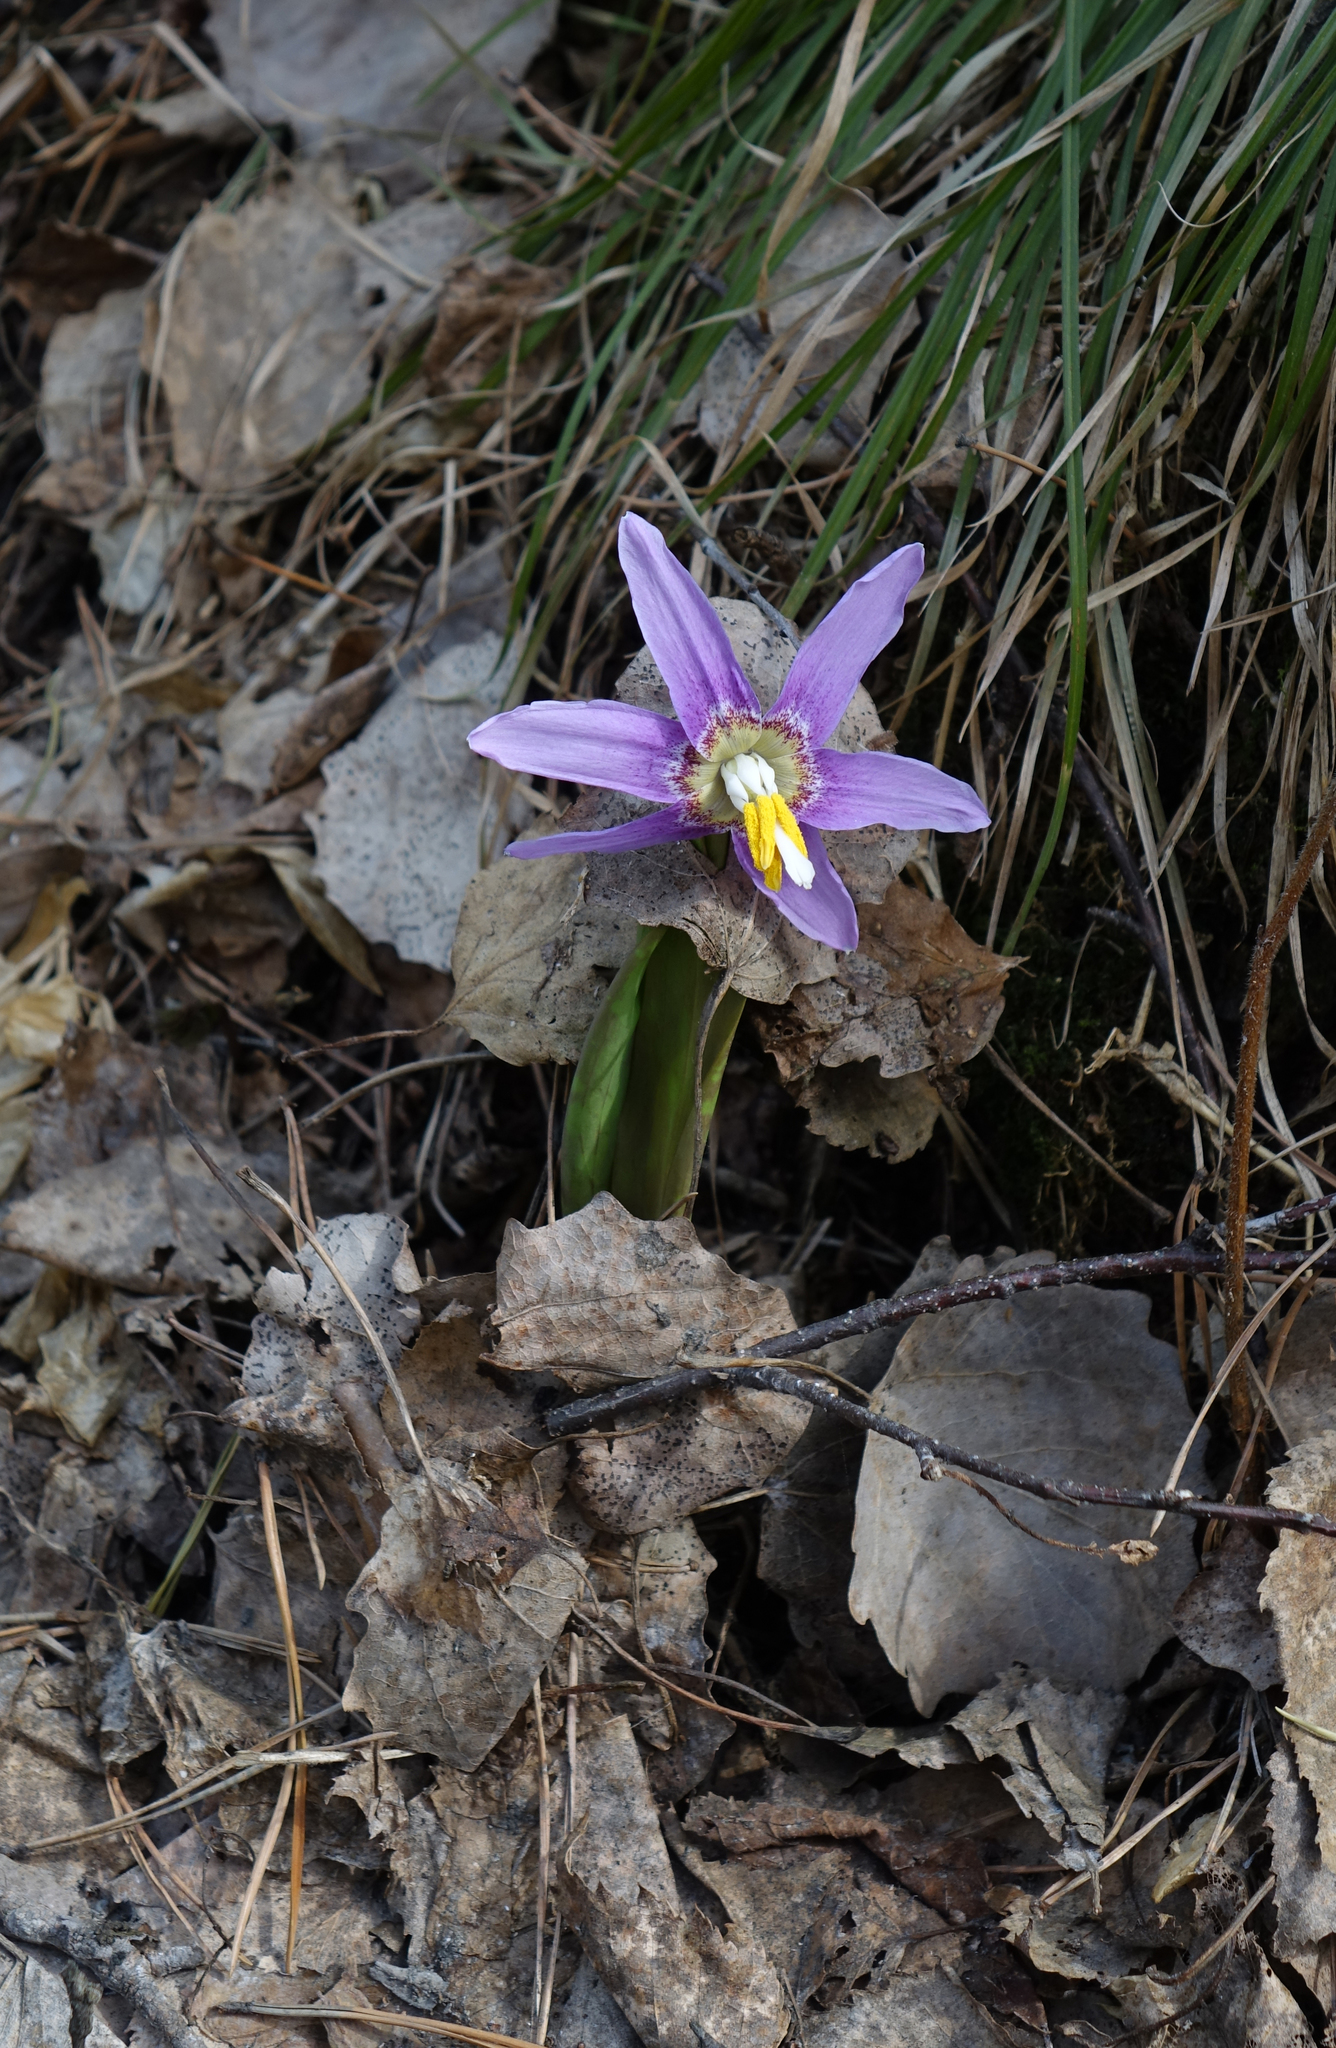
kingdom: Plantae
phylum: Tracheophyta
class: Liliopsida
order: Liliales
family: Liliaceae
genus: Erythronium
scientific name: Erythronium sibiricum
